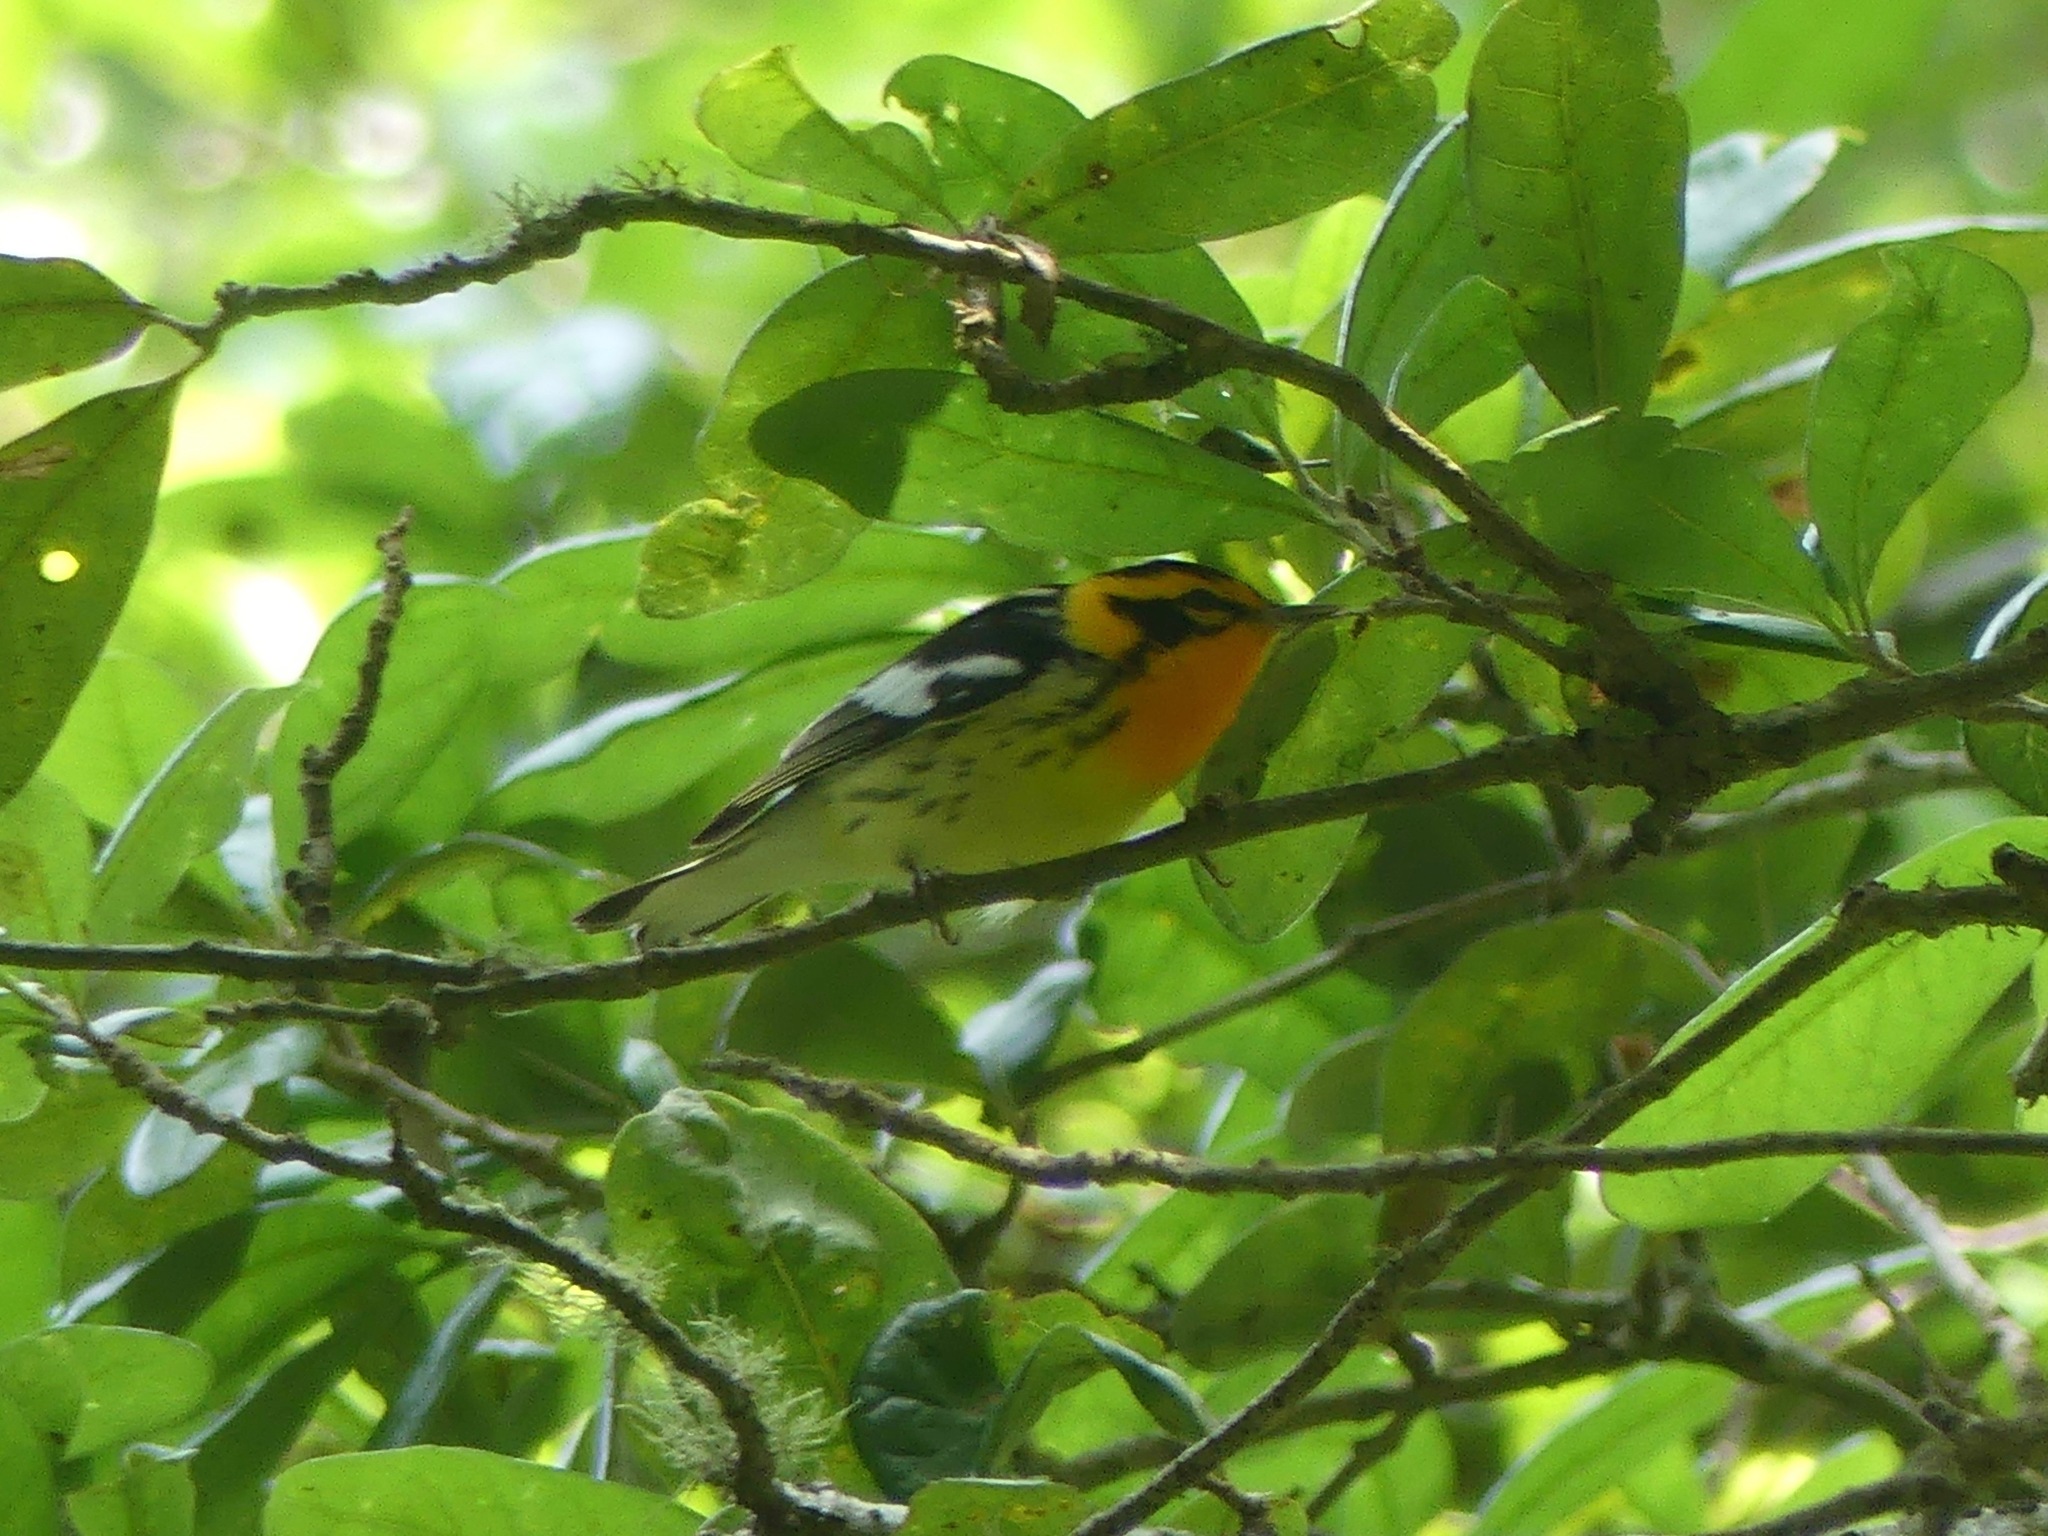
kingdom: Animalia
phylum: Chordata
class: Aves
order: Passeriformes
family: Parulidae
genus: Setophaga
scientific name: Setophaga fusca
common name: Blackburnian warbler
